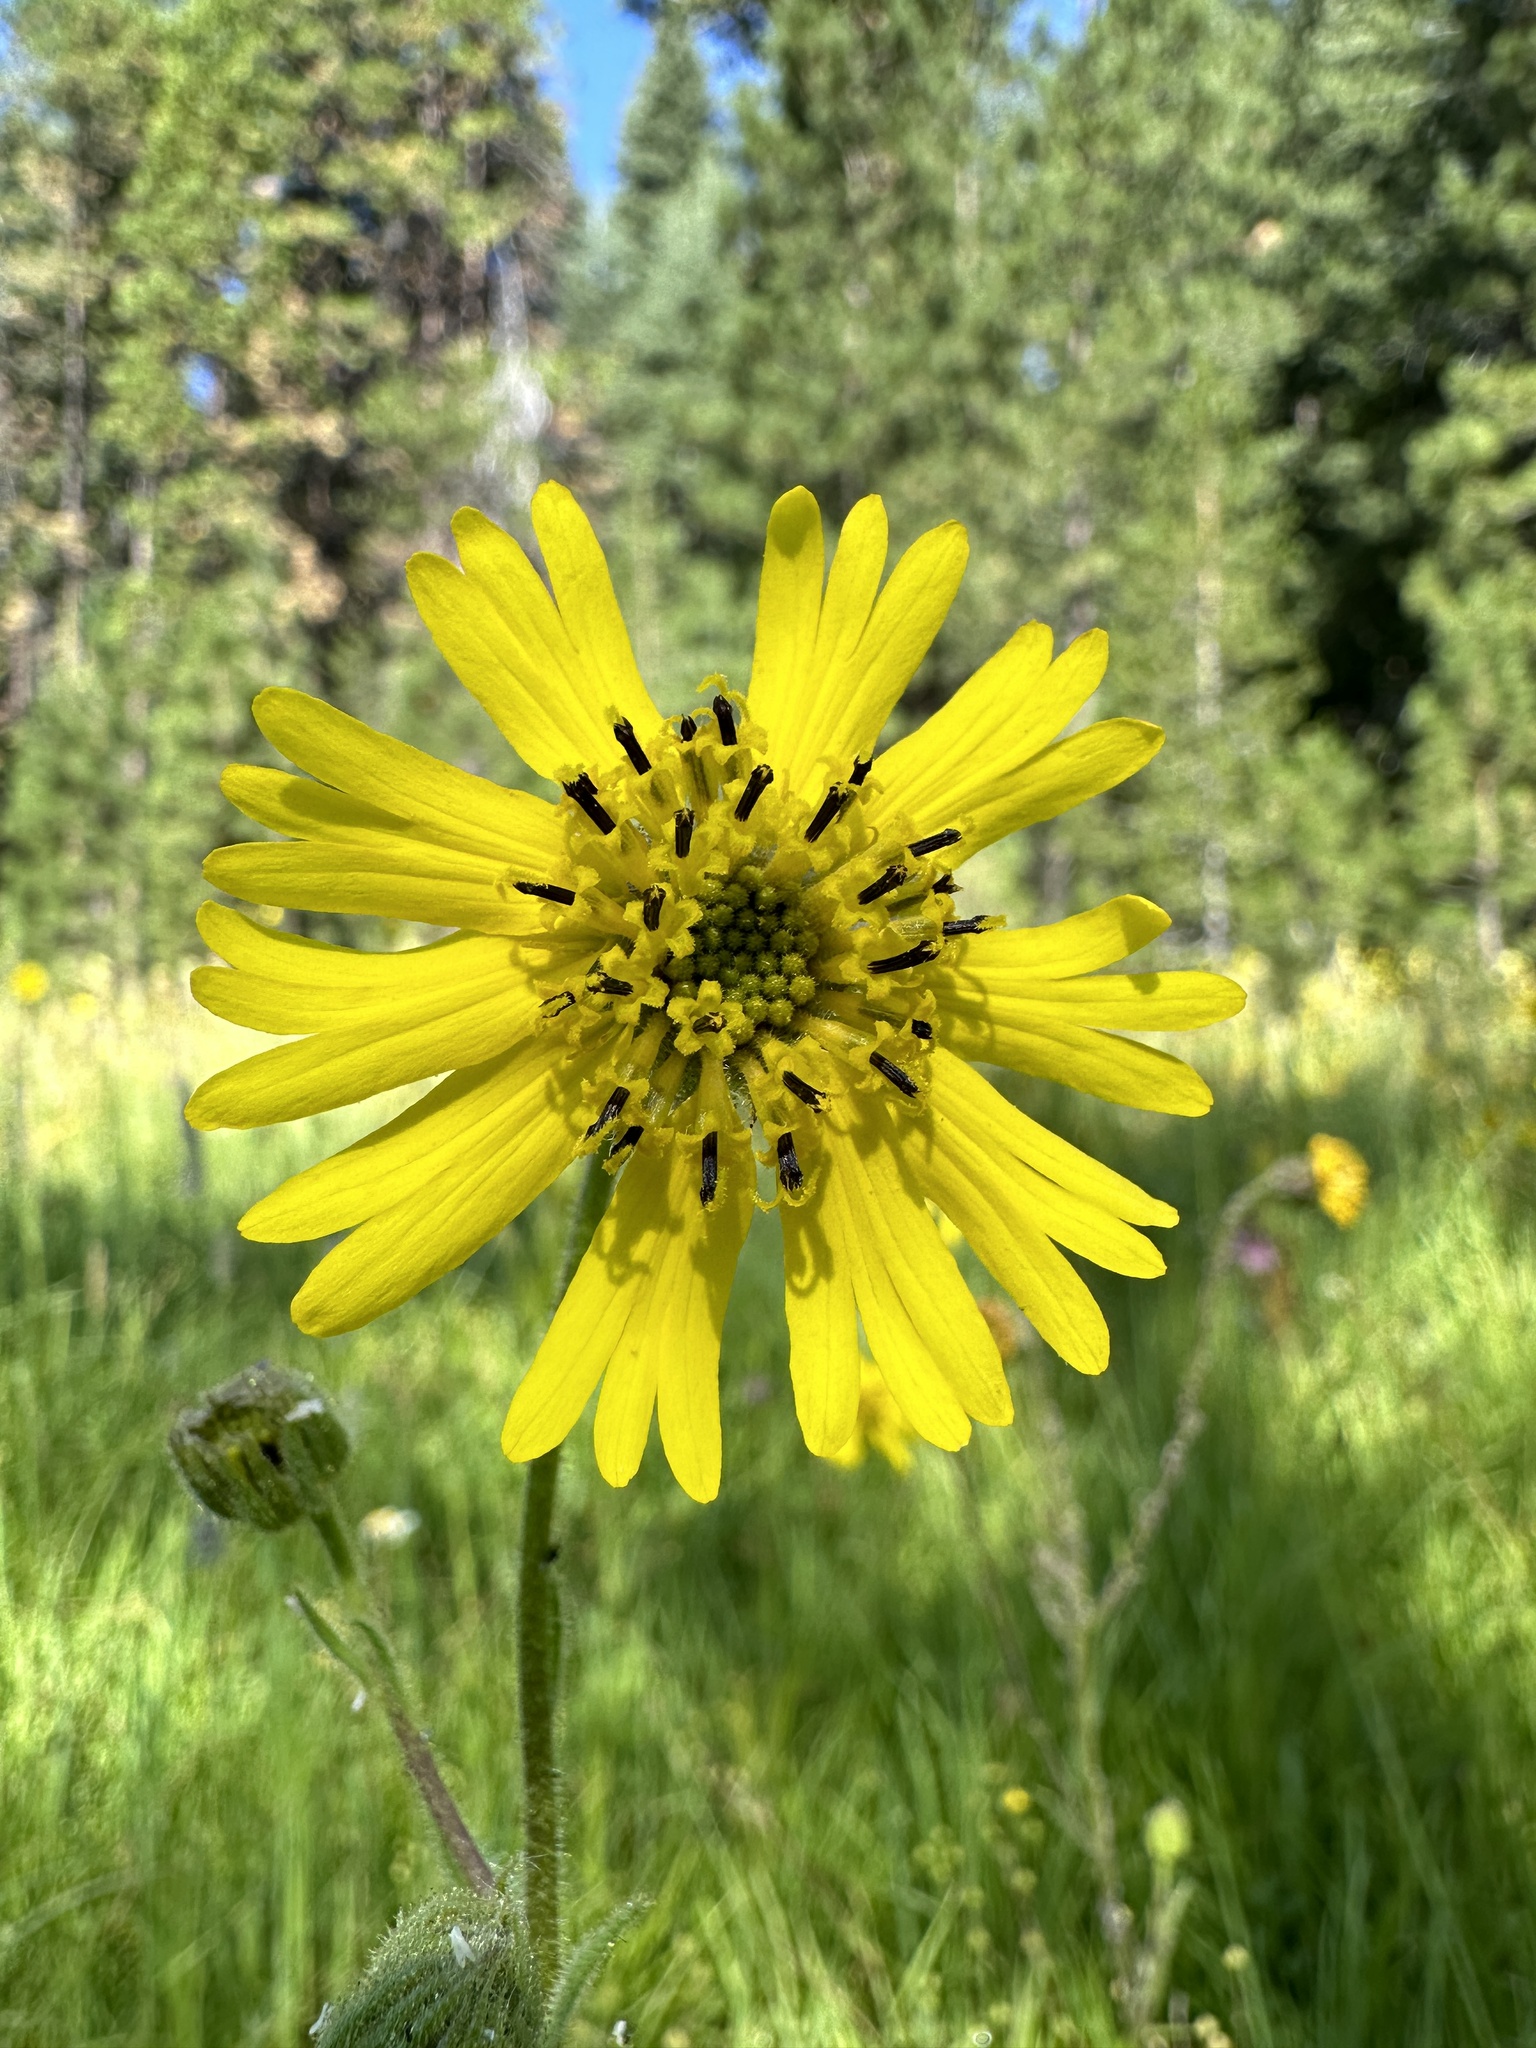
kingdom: Plantae
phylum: Tracheophyta
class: Magnoliopsida
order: Asterales
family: Asteraceae
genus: Kyhosia
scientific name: Kyhosia bolanderi
